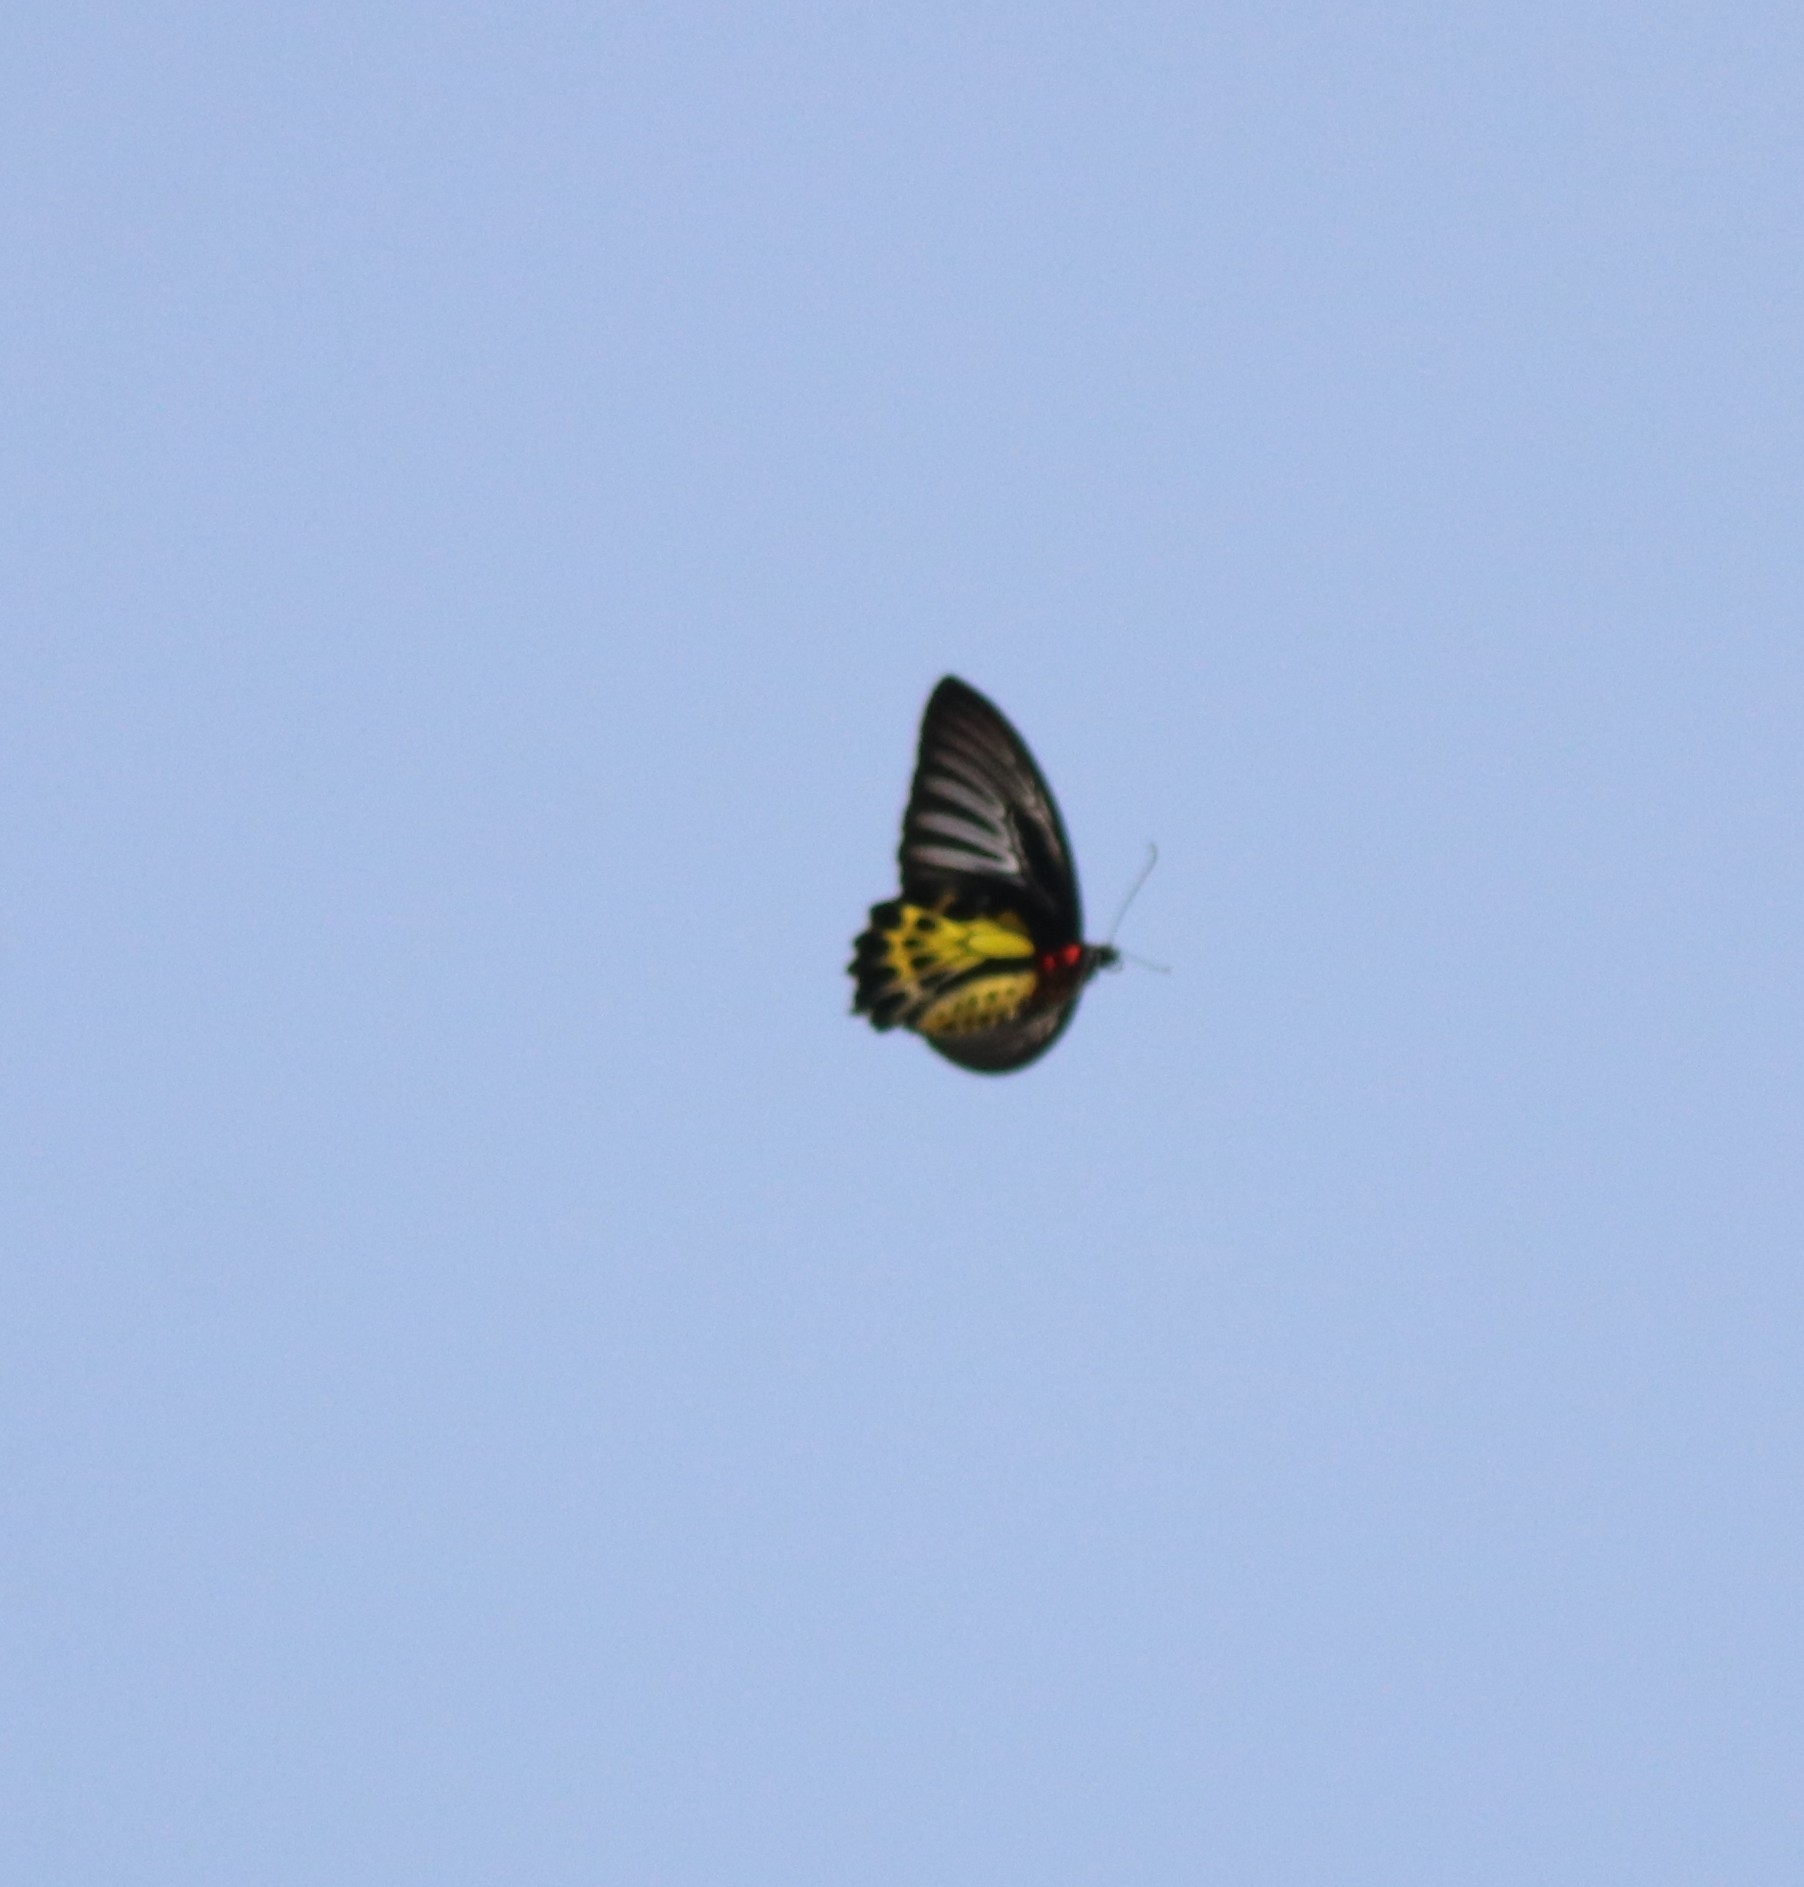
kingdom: Animalia
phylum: Arthropoda
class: Insecta
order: Lepidoptera
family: Papilionidae
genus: Troides
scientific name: Troides minos
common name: Malabar birdwing
